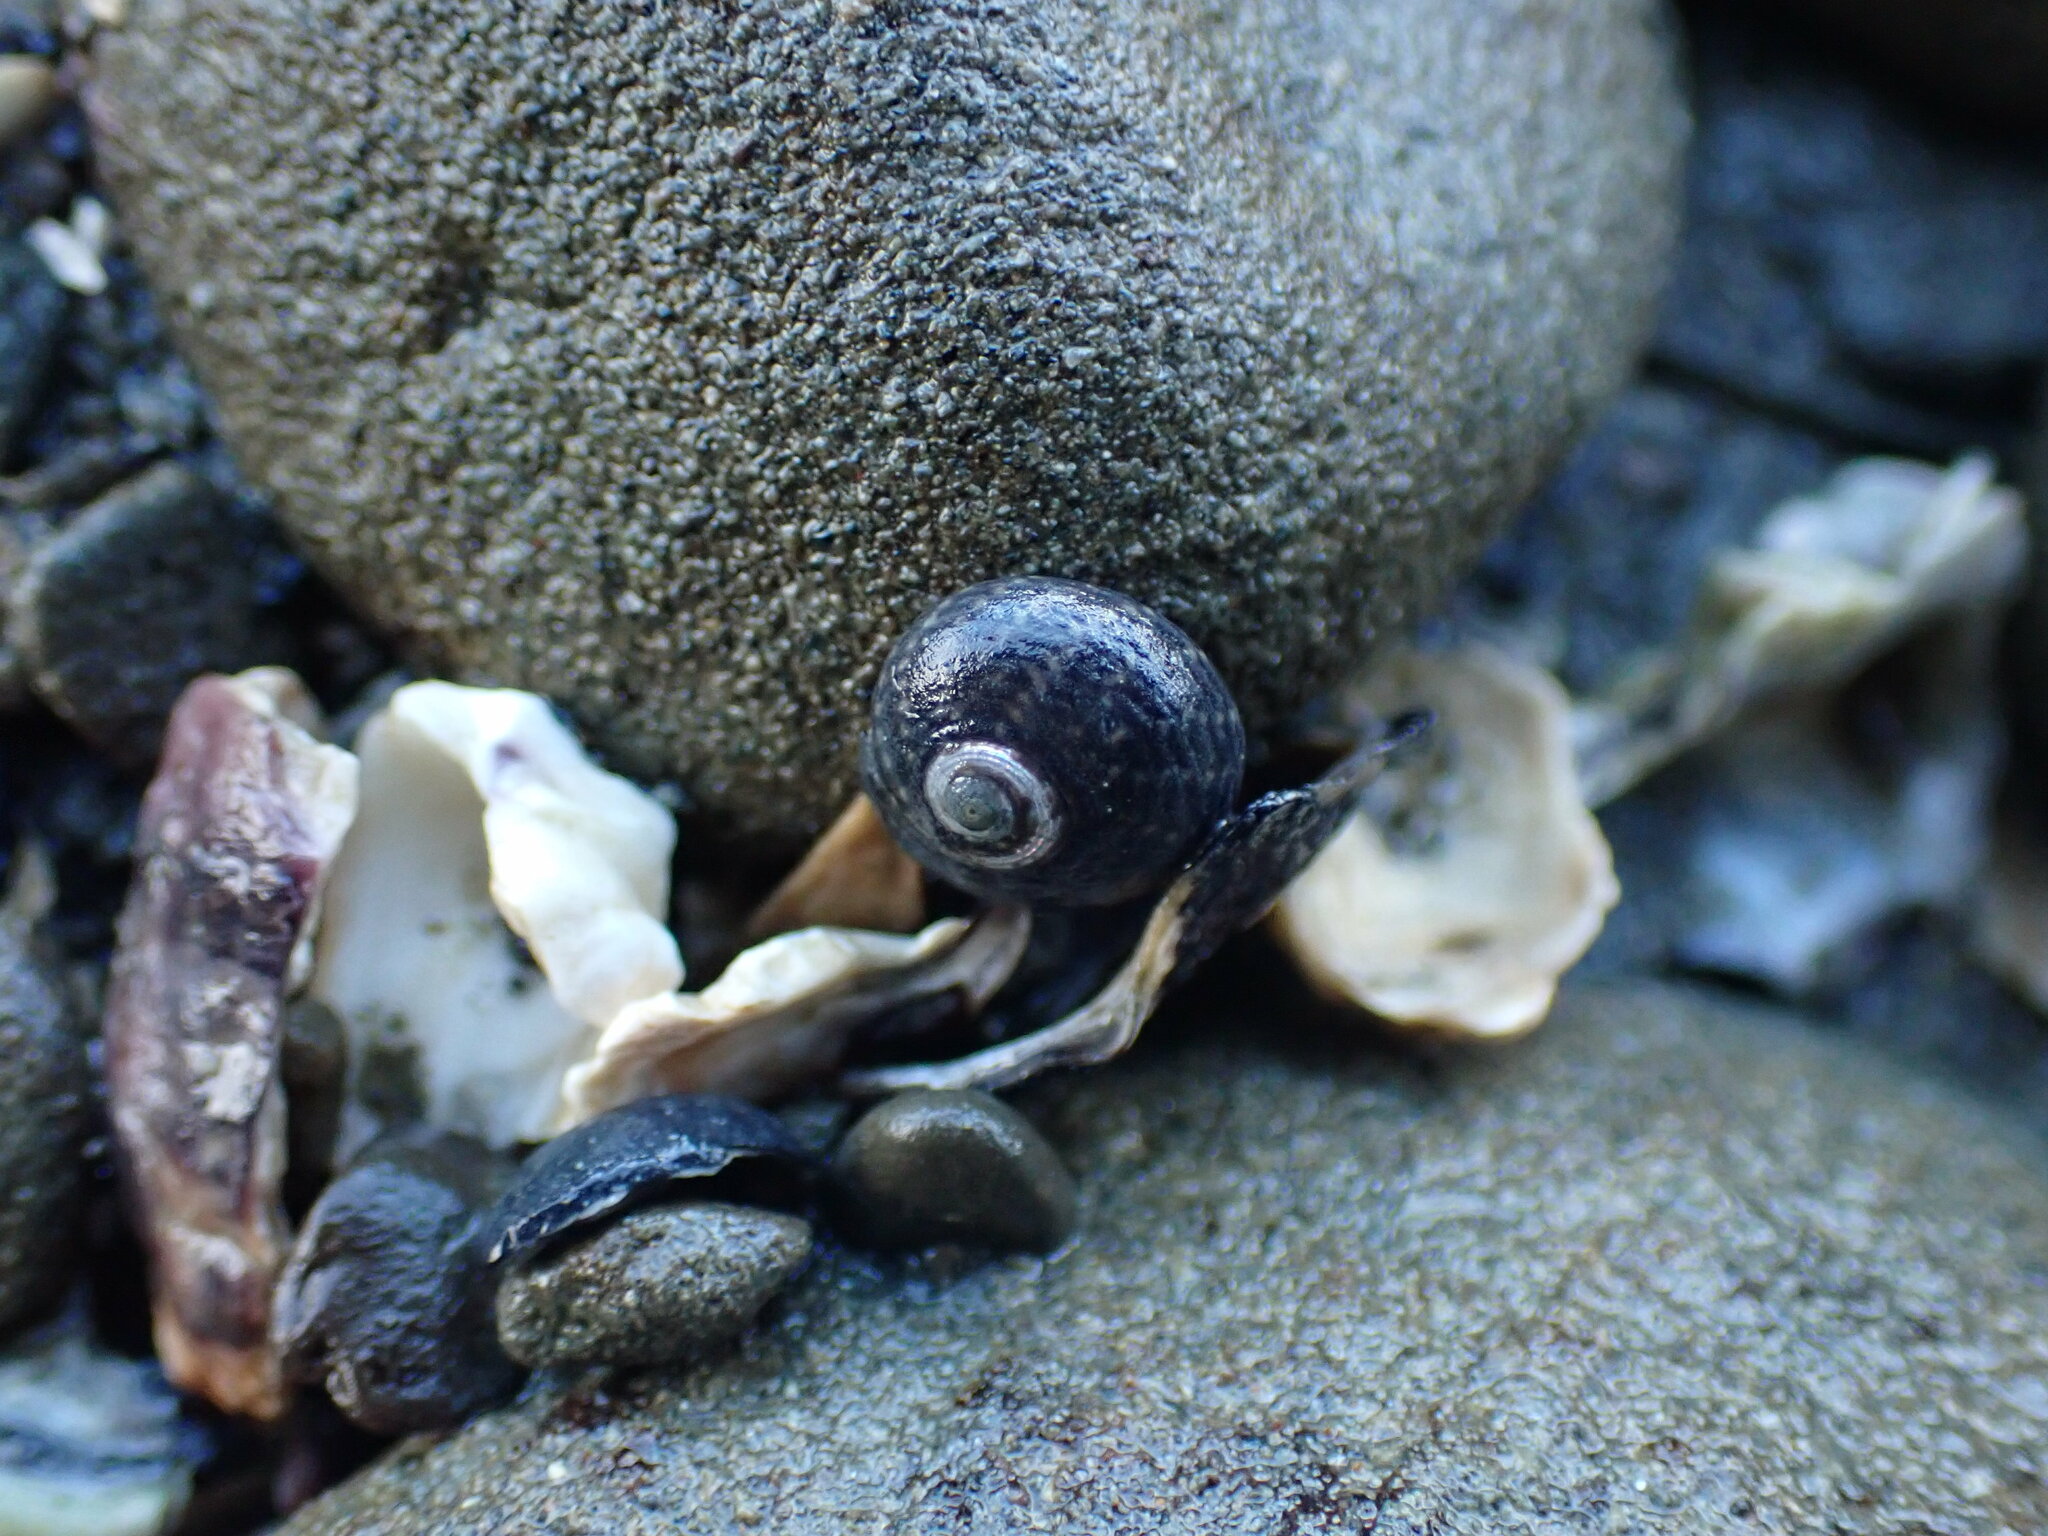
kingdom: Animalia
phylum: Mollusca
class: Gastropoda
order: Trochida
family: Trochidae
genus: Diloma
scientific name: Diloma zelandicum
